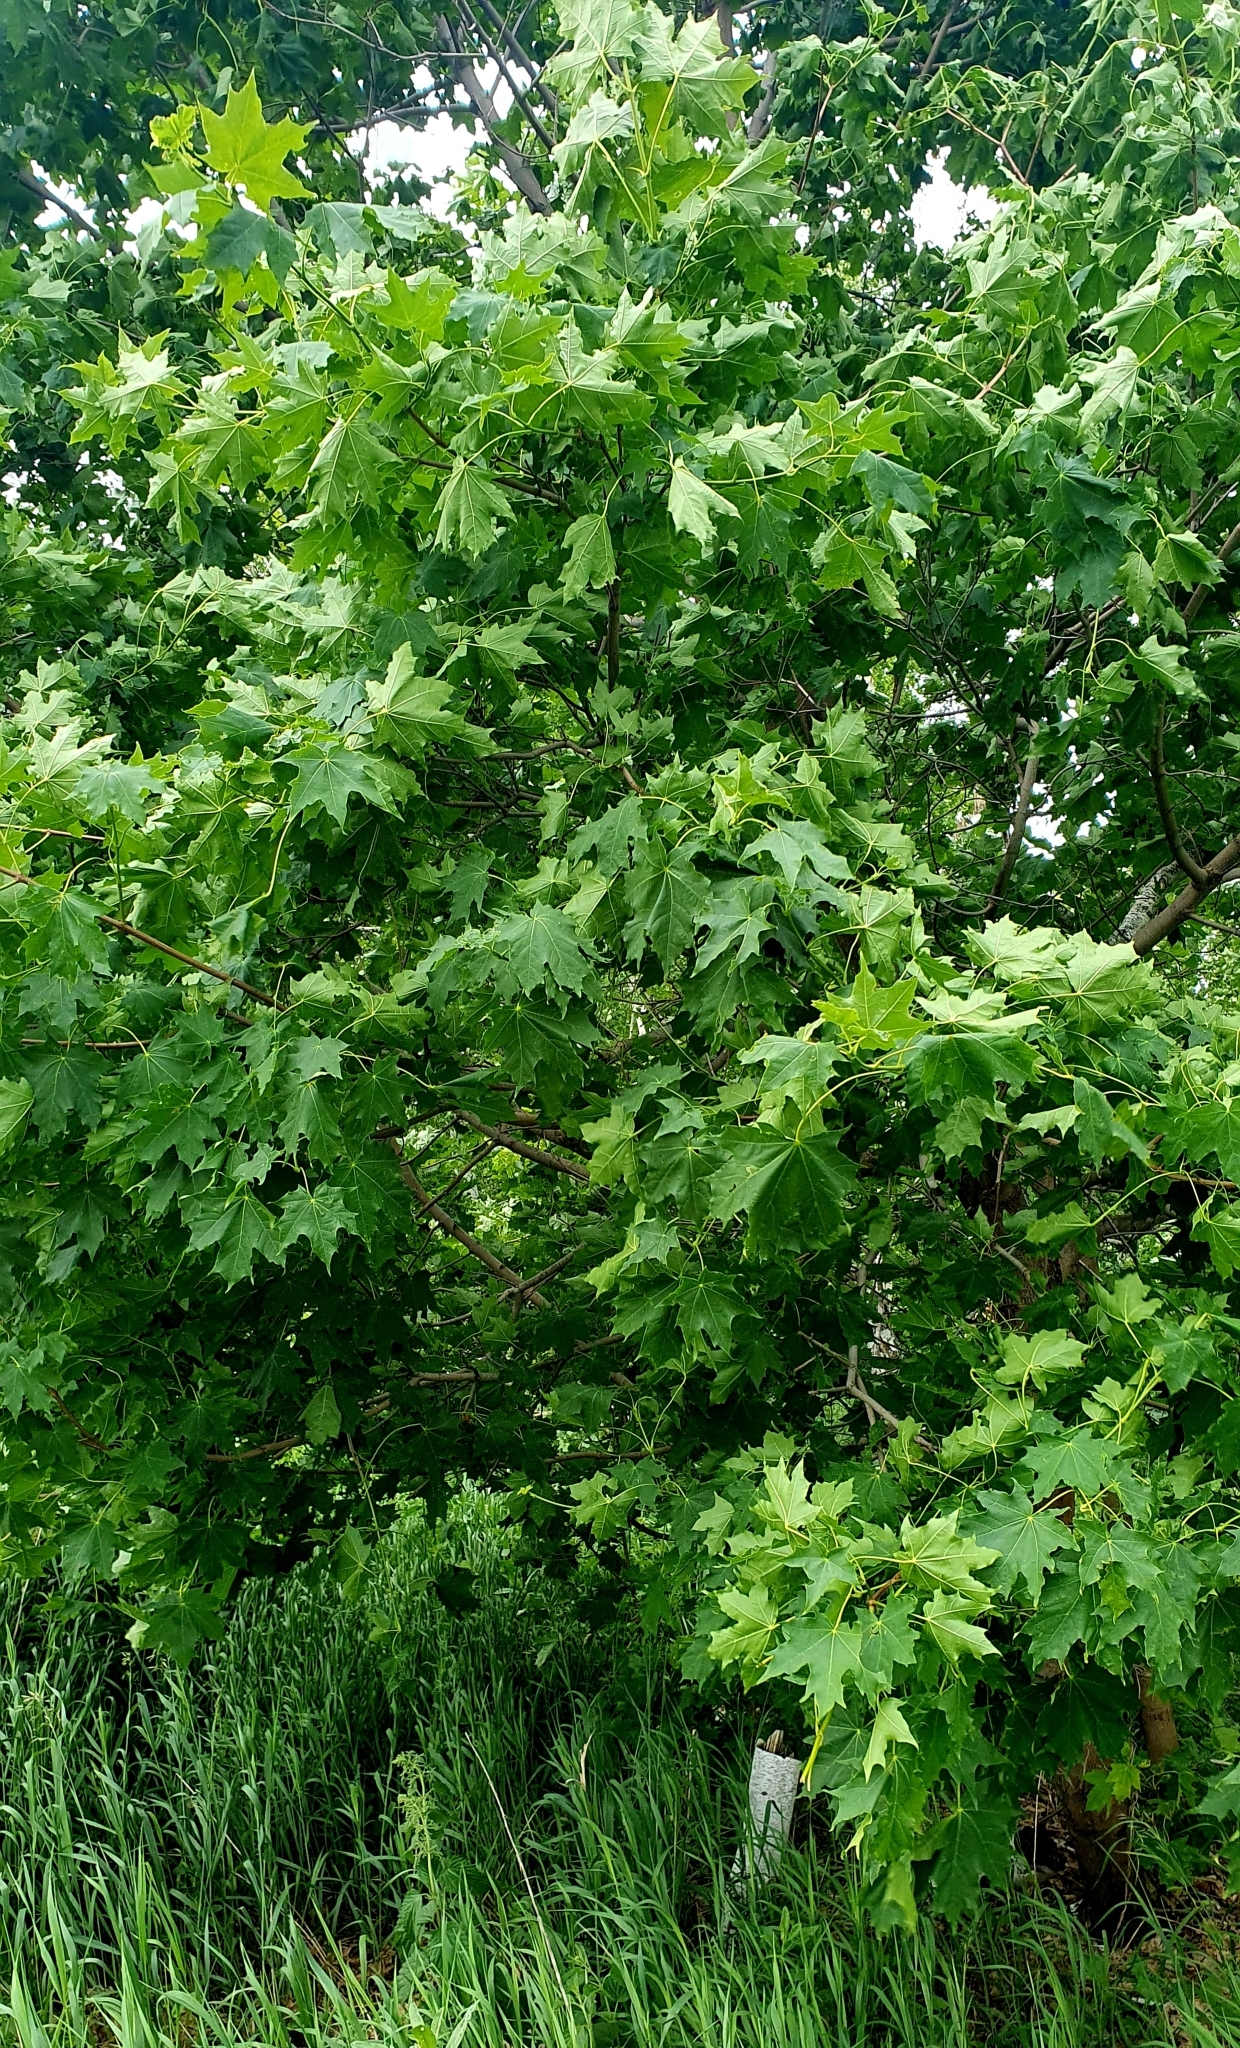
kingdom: Plantae
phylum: Tracheophyta
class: Magnoliopsida
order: Sapindales
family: Sapindaceae
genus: Acer
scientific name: Acer platanoides
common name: Norway maple
